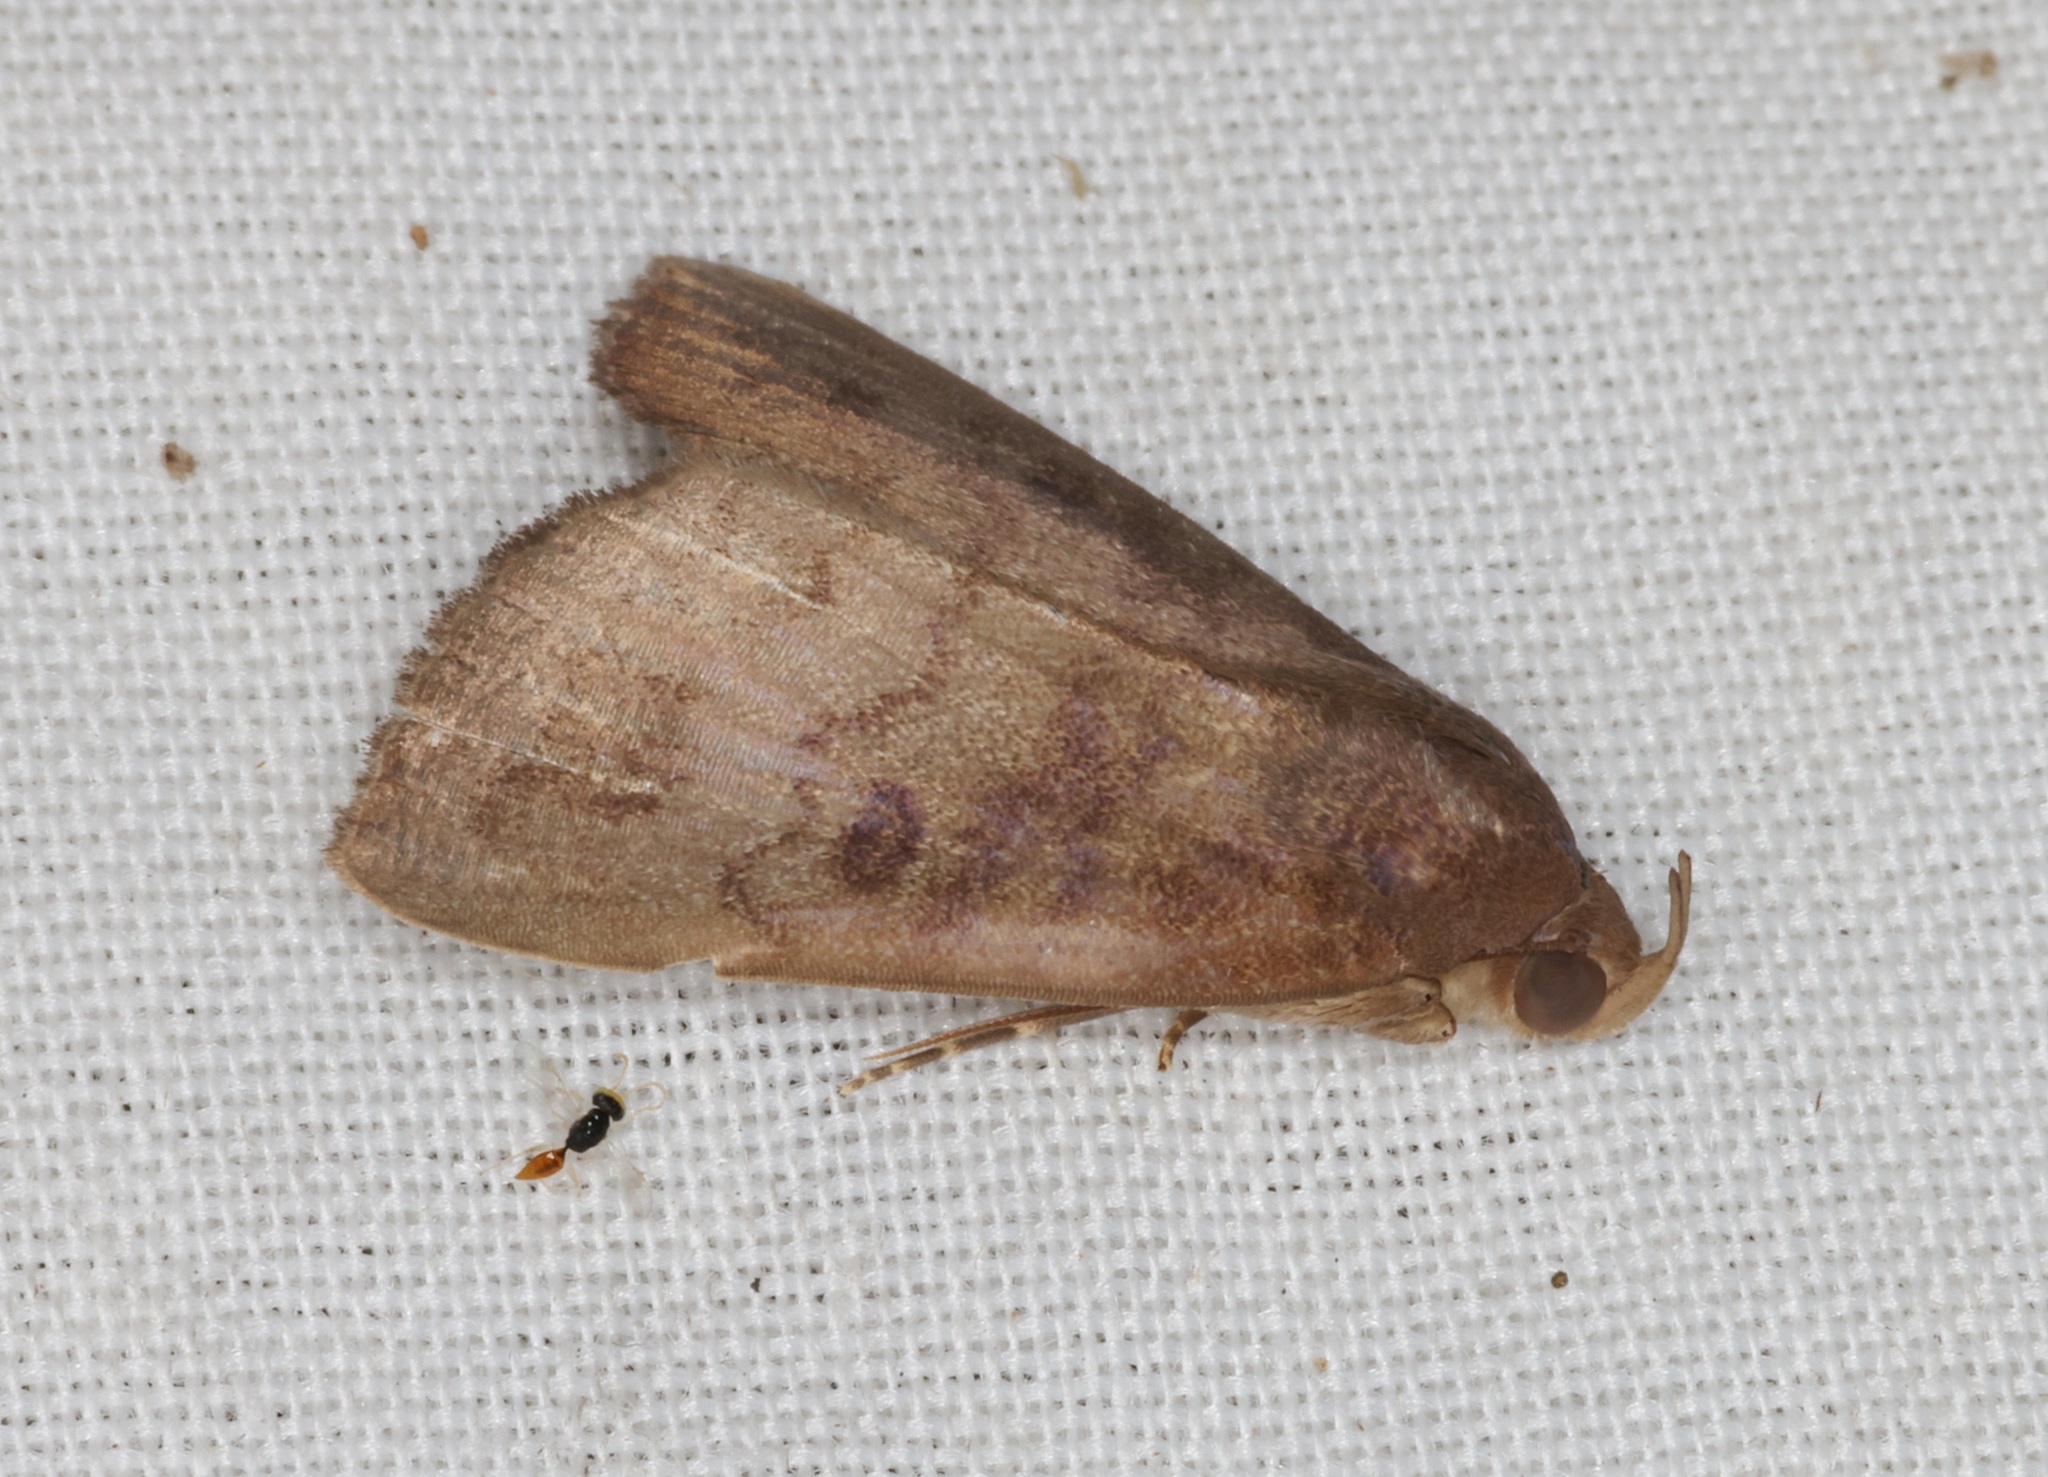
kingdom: Animalia
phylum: Arthropoda
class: Insecta
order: Lepidoptera
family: Erebidae
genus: Avitta
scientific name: Avitta fasciosa
